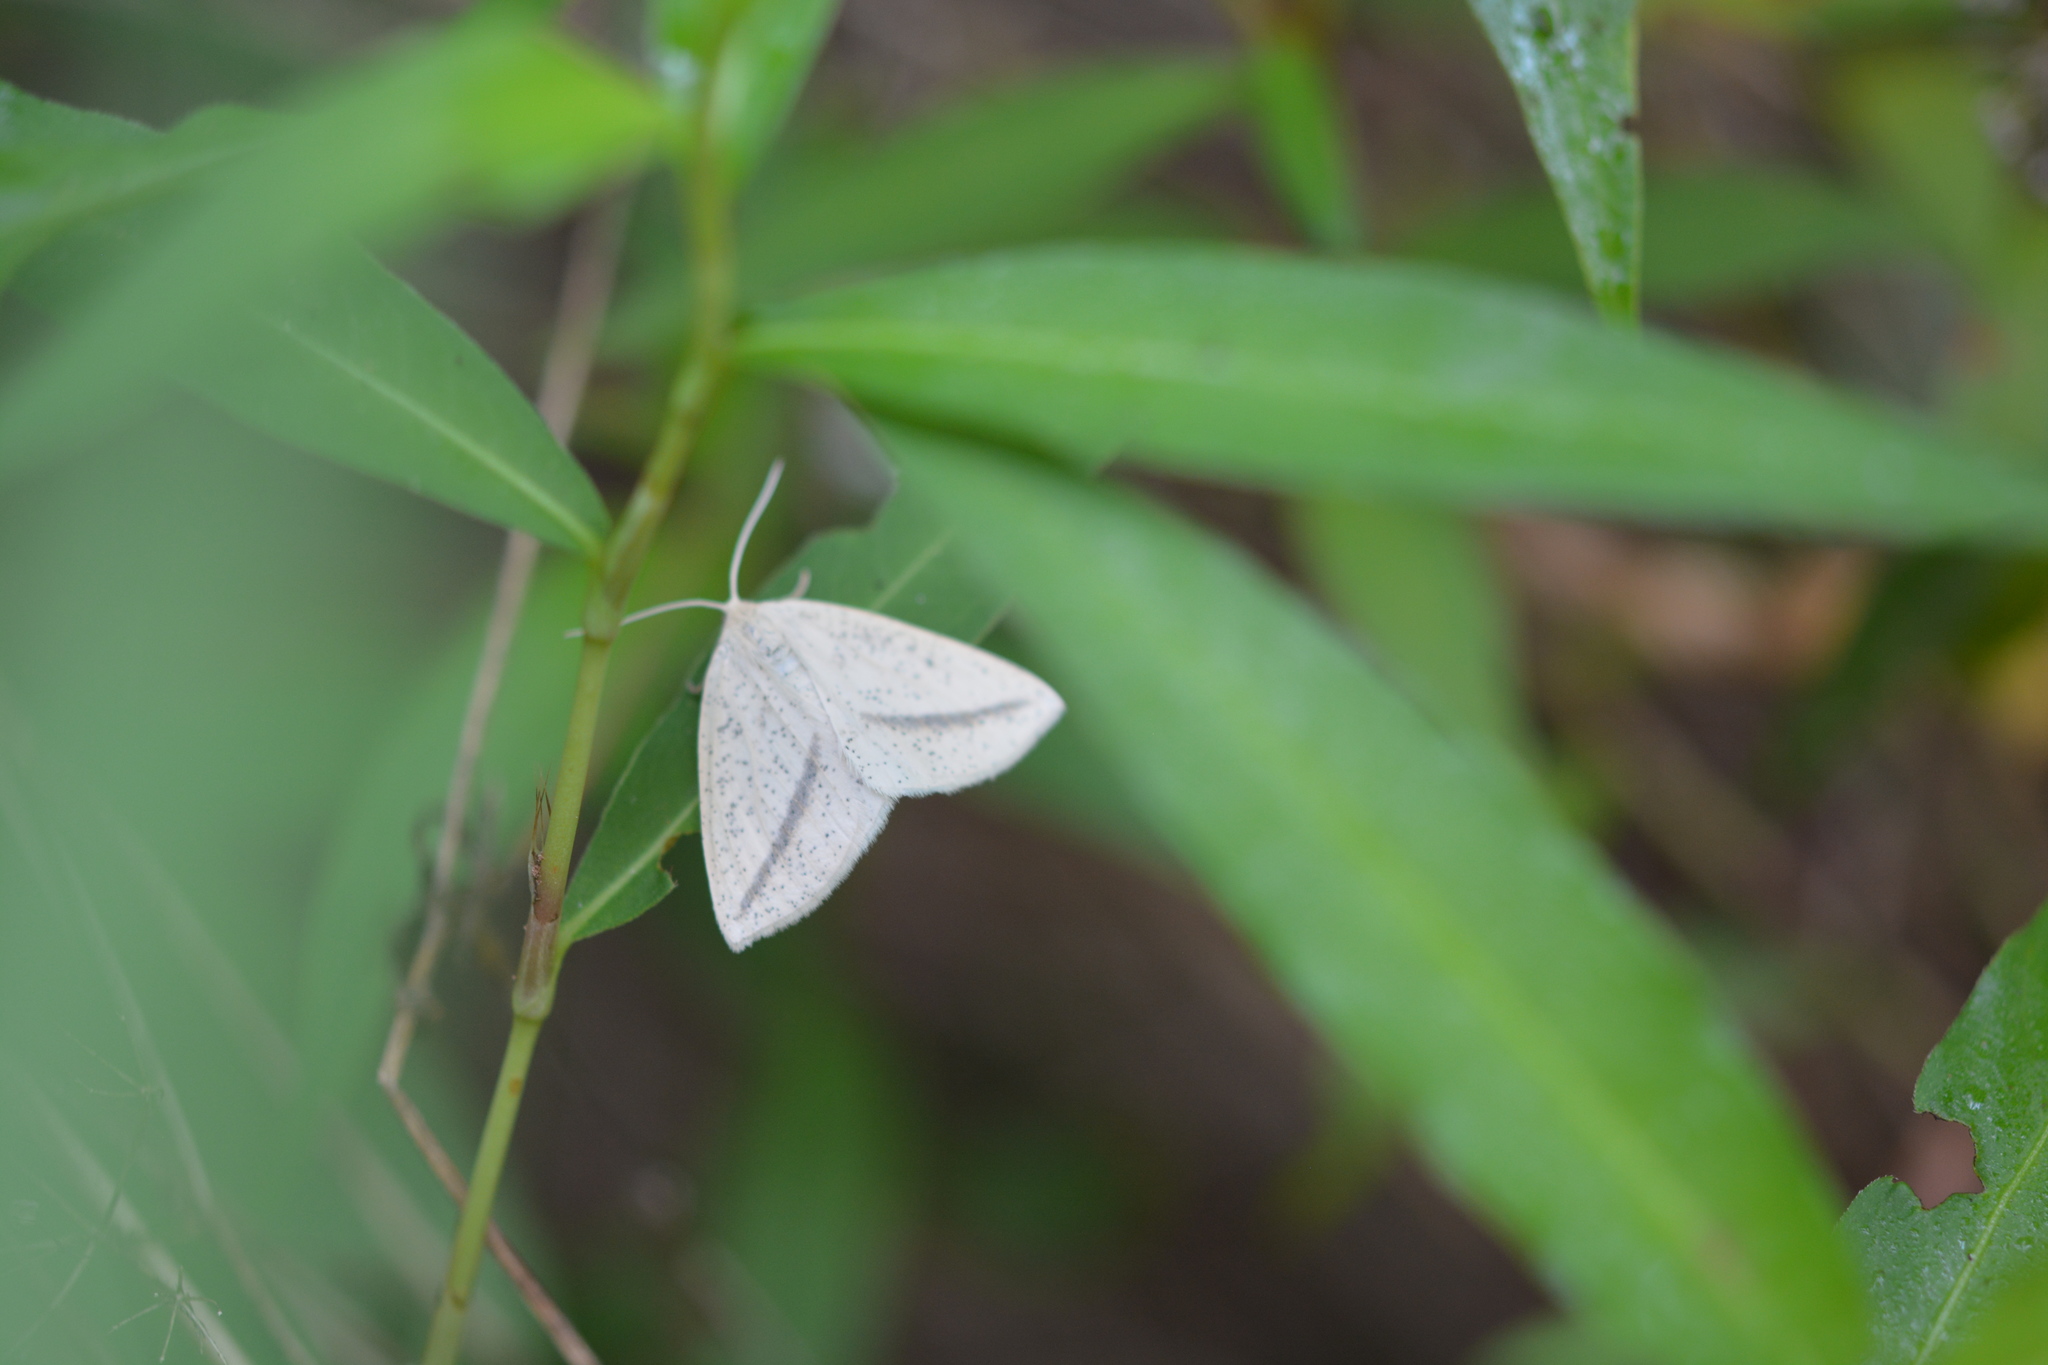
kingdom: Animalia
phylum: Arthropoda
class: Insecta
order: Lepidoptera
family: Geometridae
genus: Lychnosea
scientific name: Lychnosea intermicata
